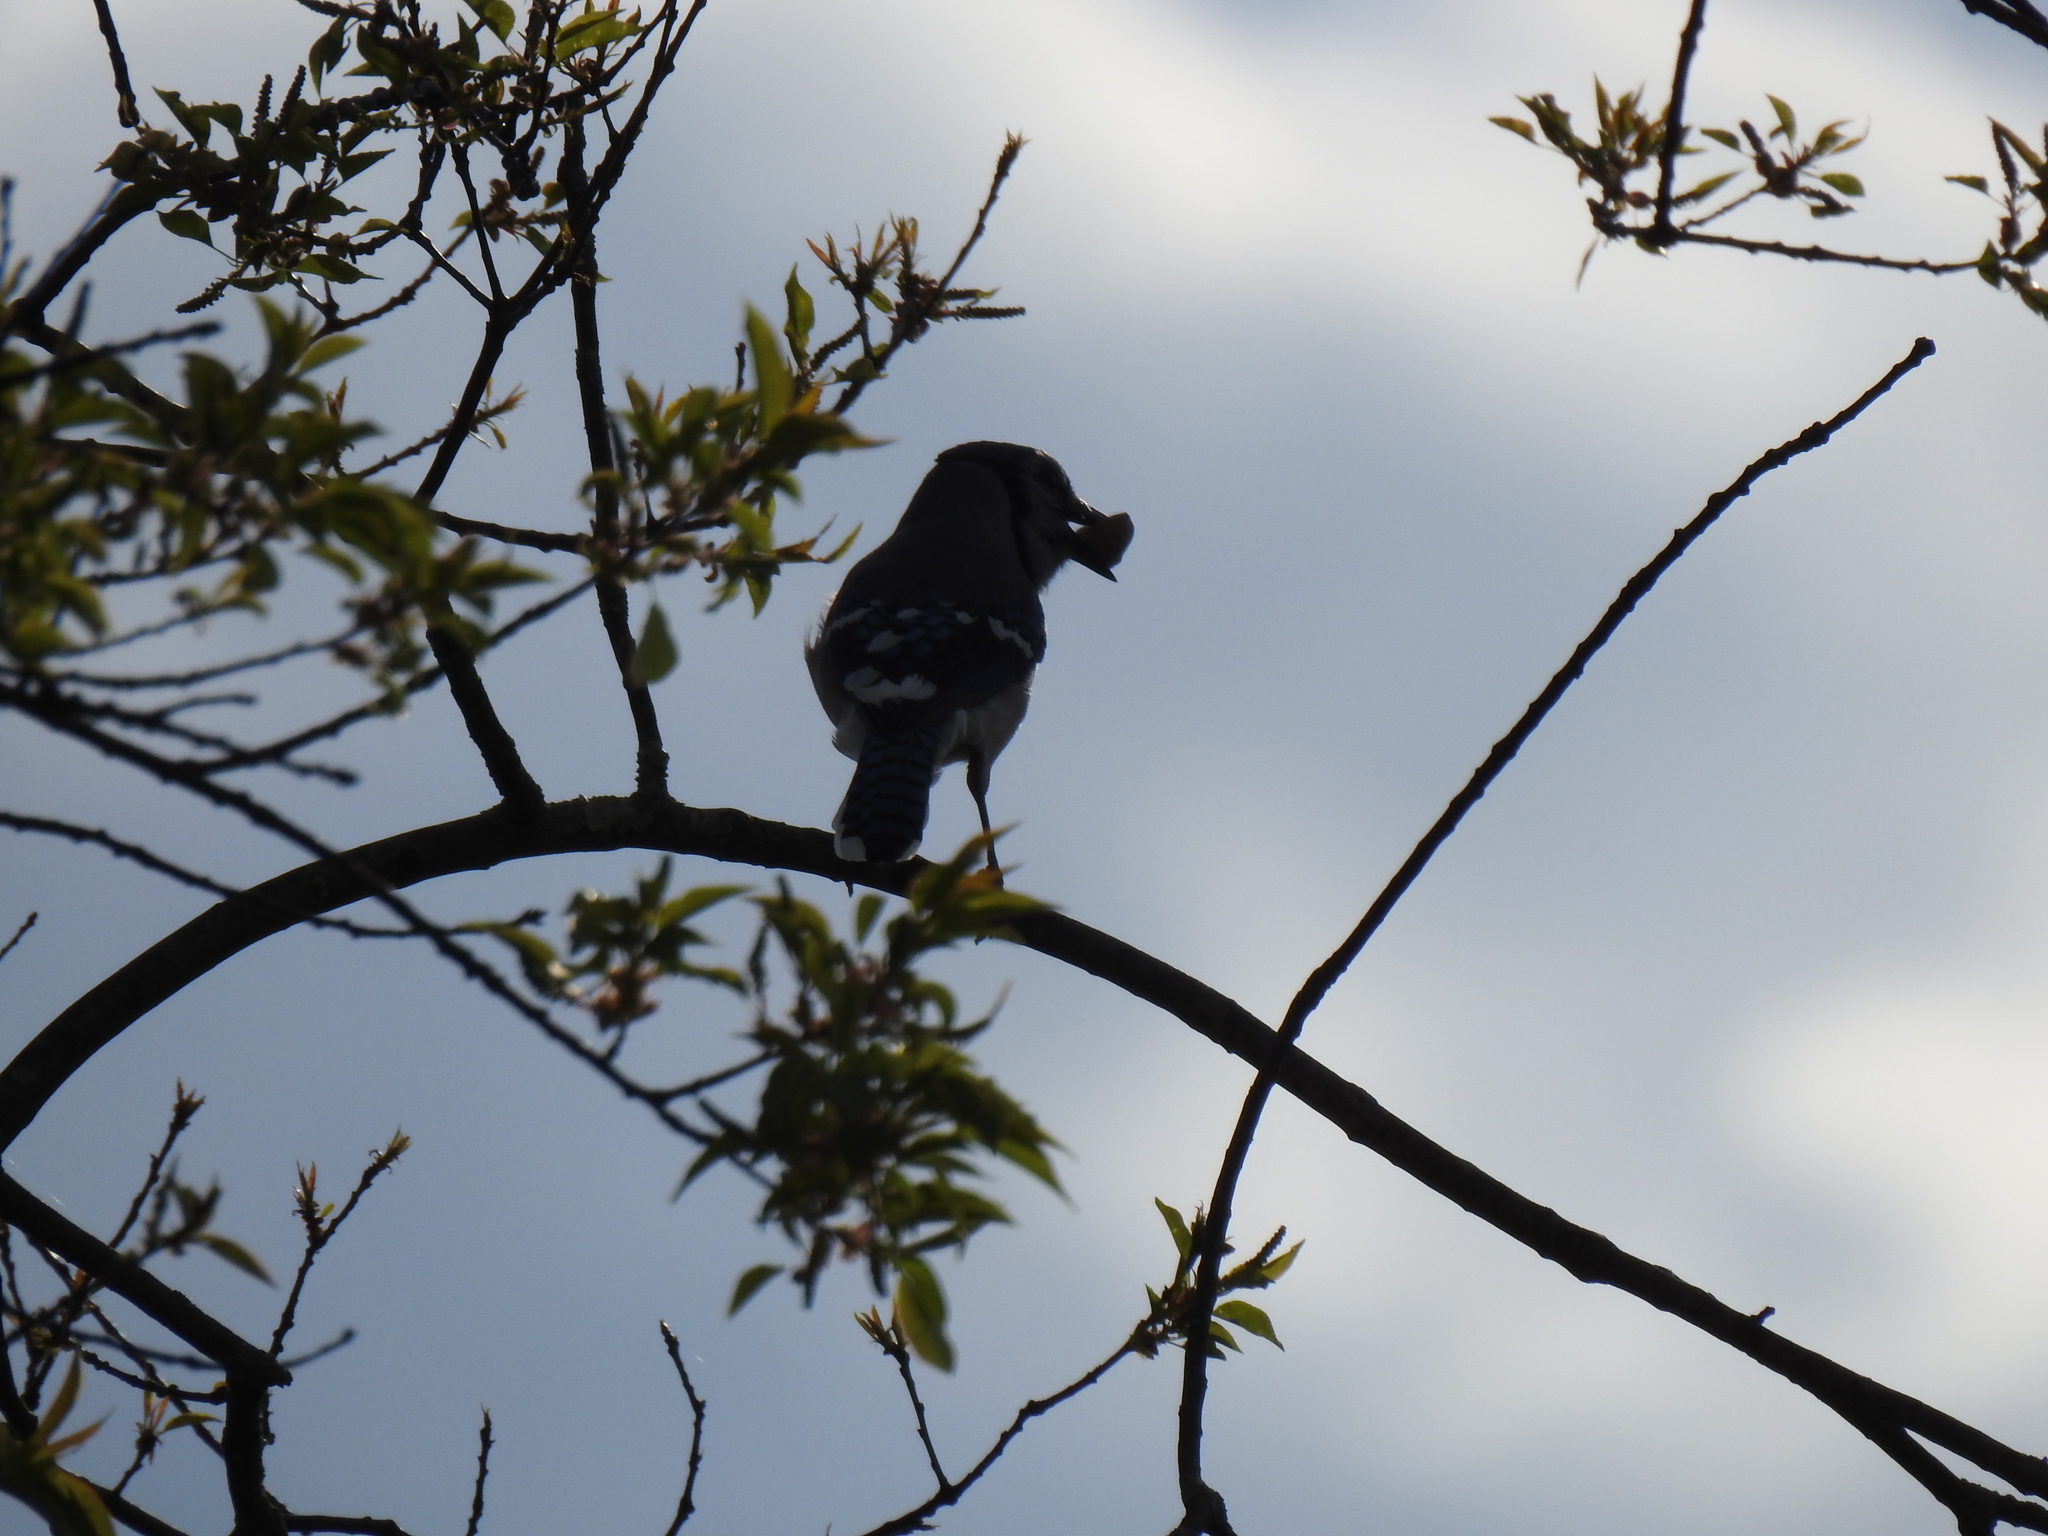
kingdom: Animalia
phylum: Chordata
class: Aves
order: Passeriformes
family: Corvidae
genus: Cyanocitta
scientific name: Cyanocitta cristata
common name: Blue jay
